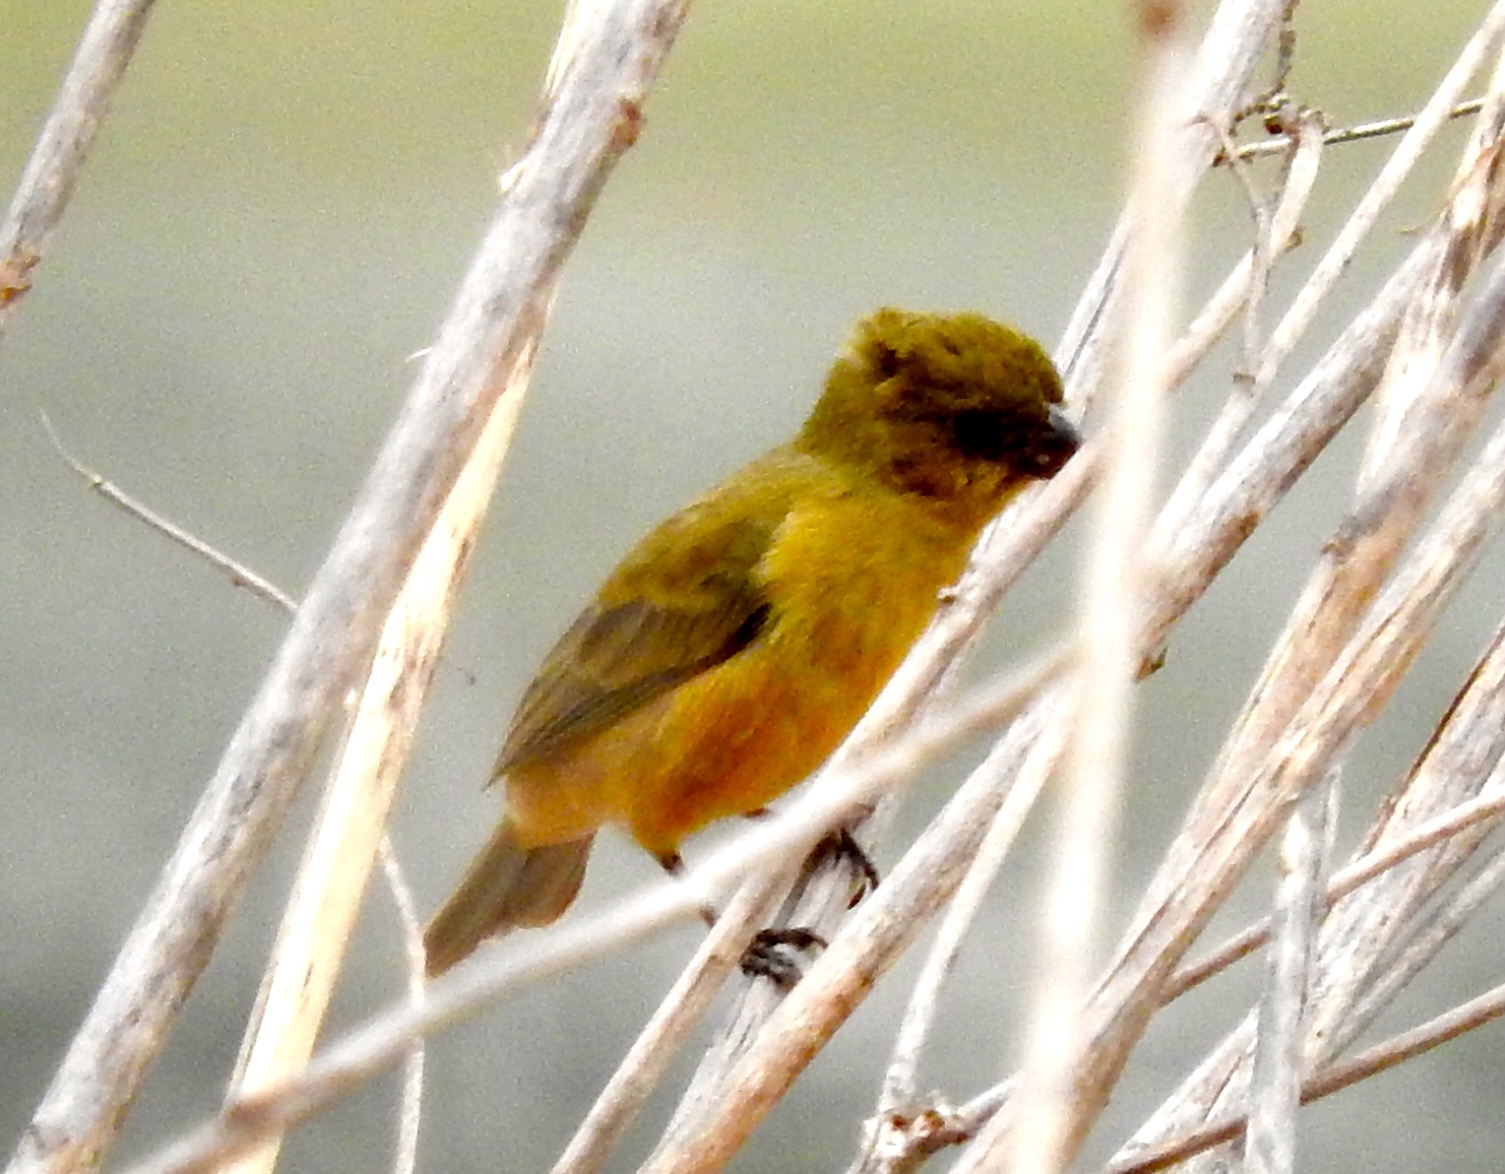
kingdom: Animalia
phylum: Chordata
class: Aves
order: Passeriformes
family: Thraupidae
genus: Sporophila
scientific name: Sporophila torqueola
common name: White-collared seedeater
